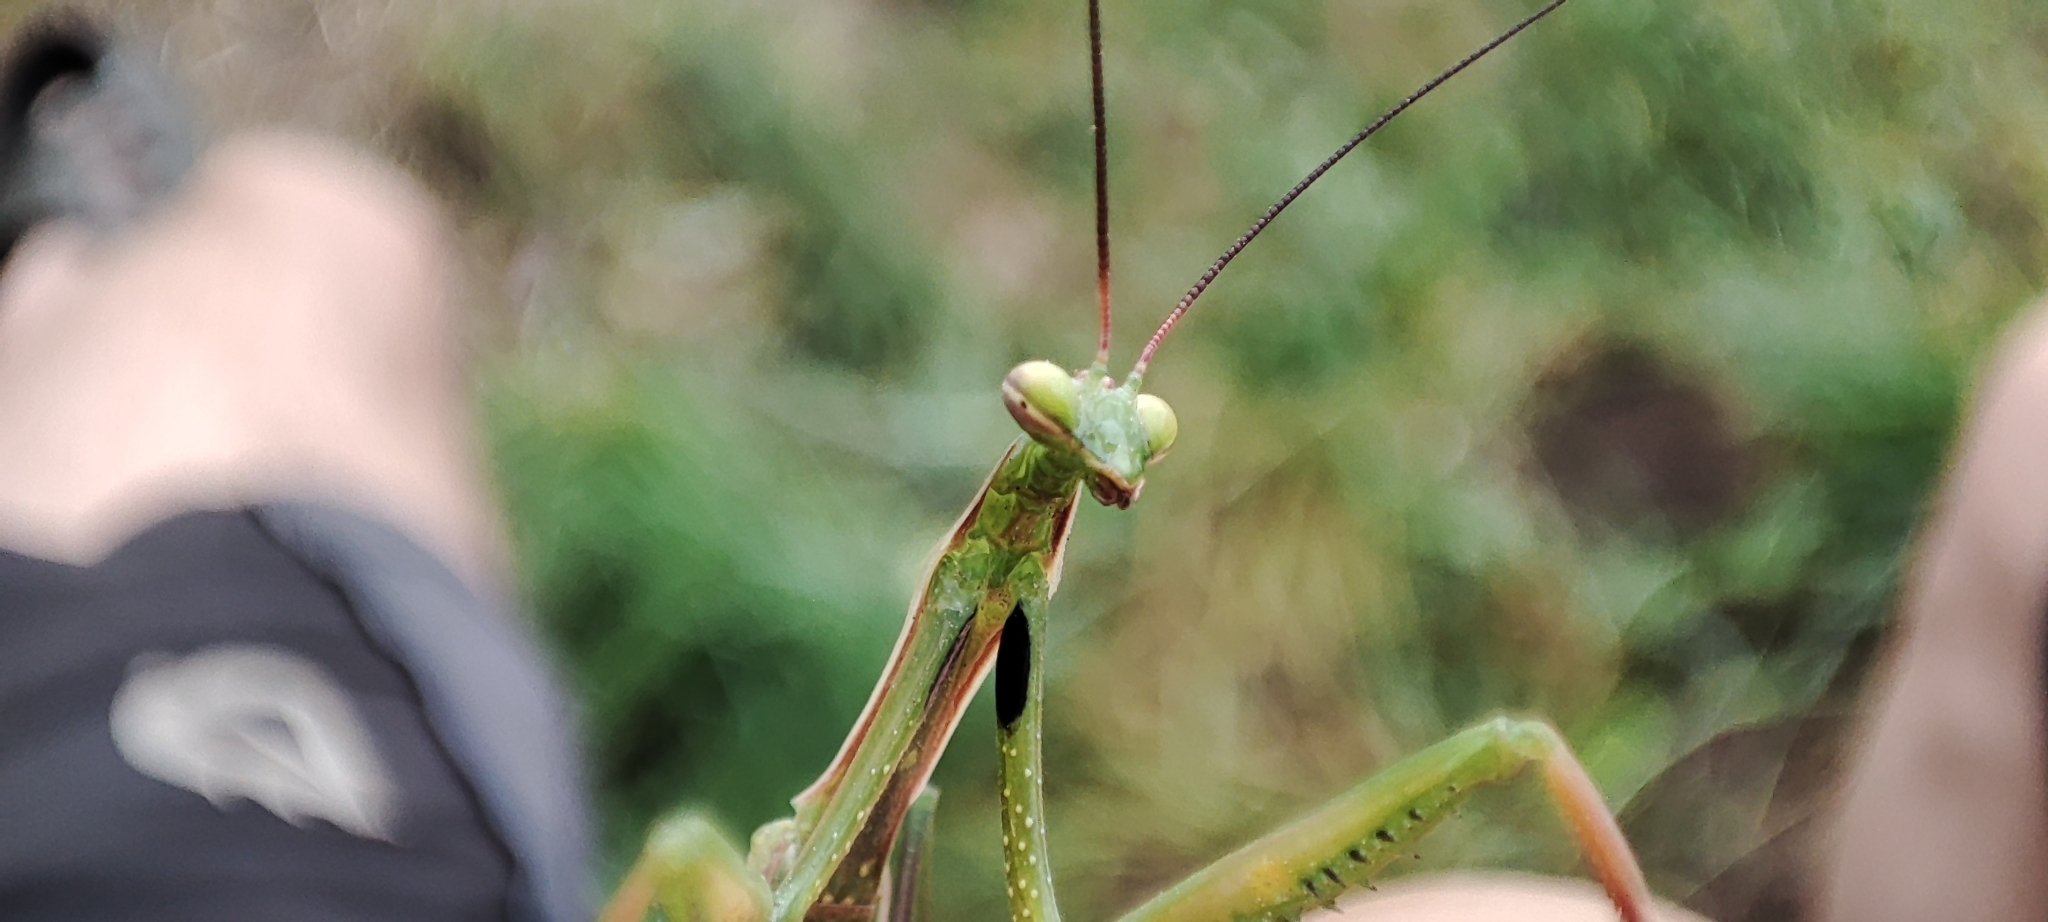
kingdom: Animalia
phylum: Arthropoda
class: Insecta
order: Mantodea
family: Mantidae
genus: Mantis
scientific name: Mantis religiosa
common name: Praying mantis
